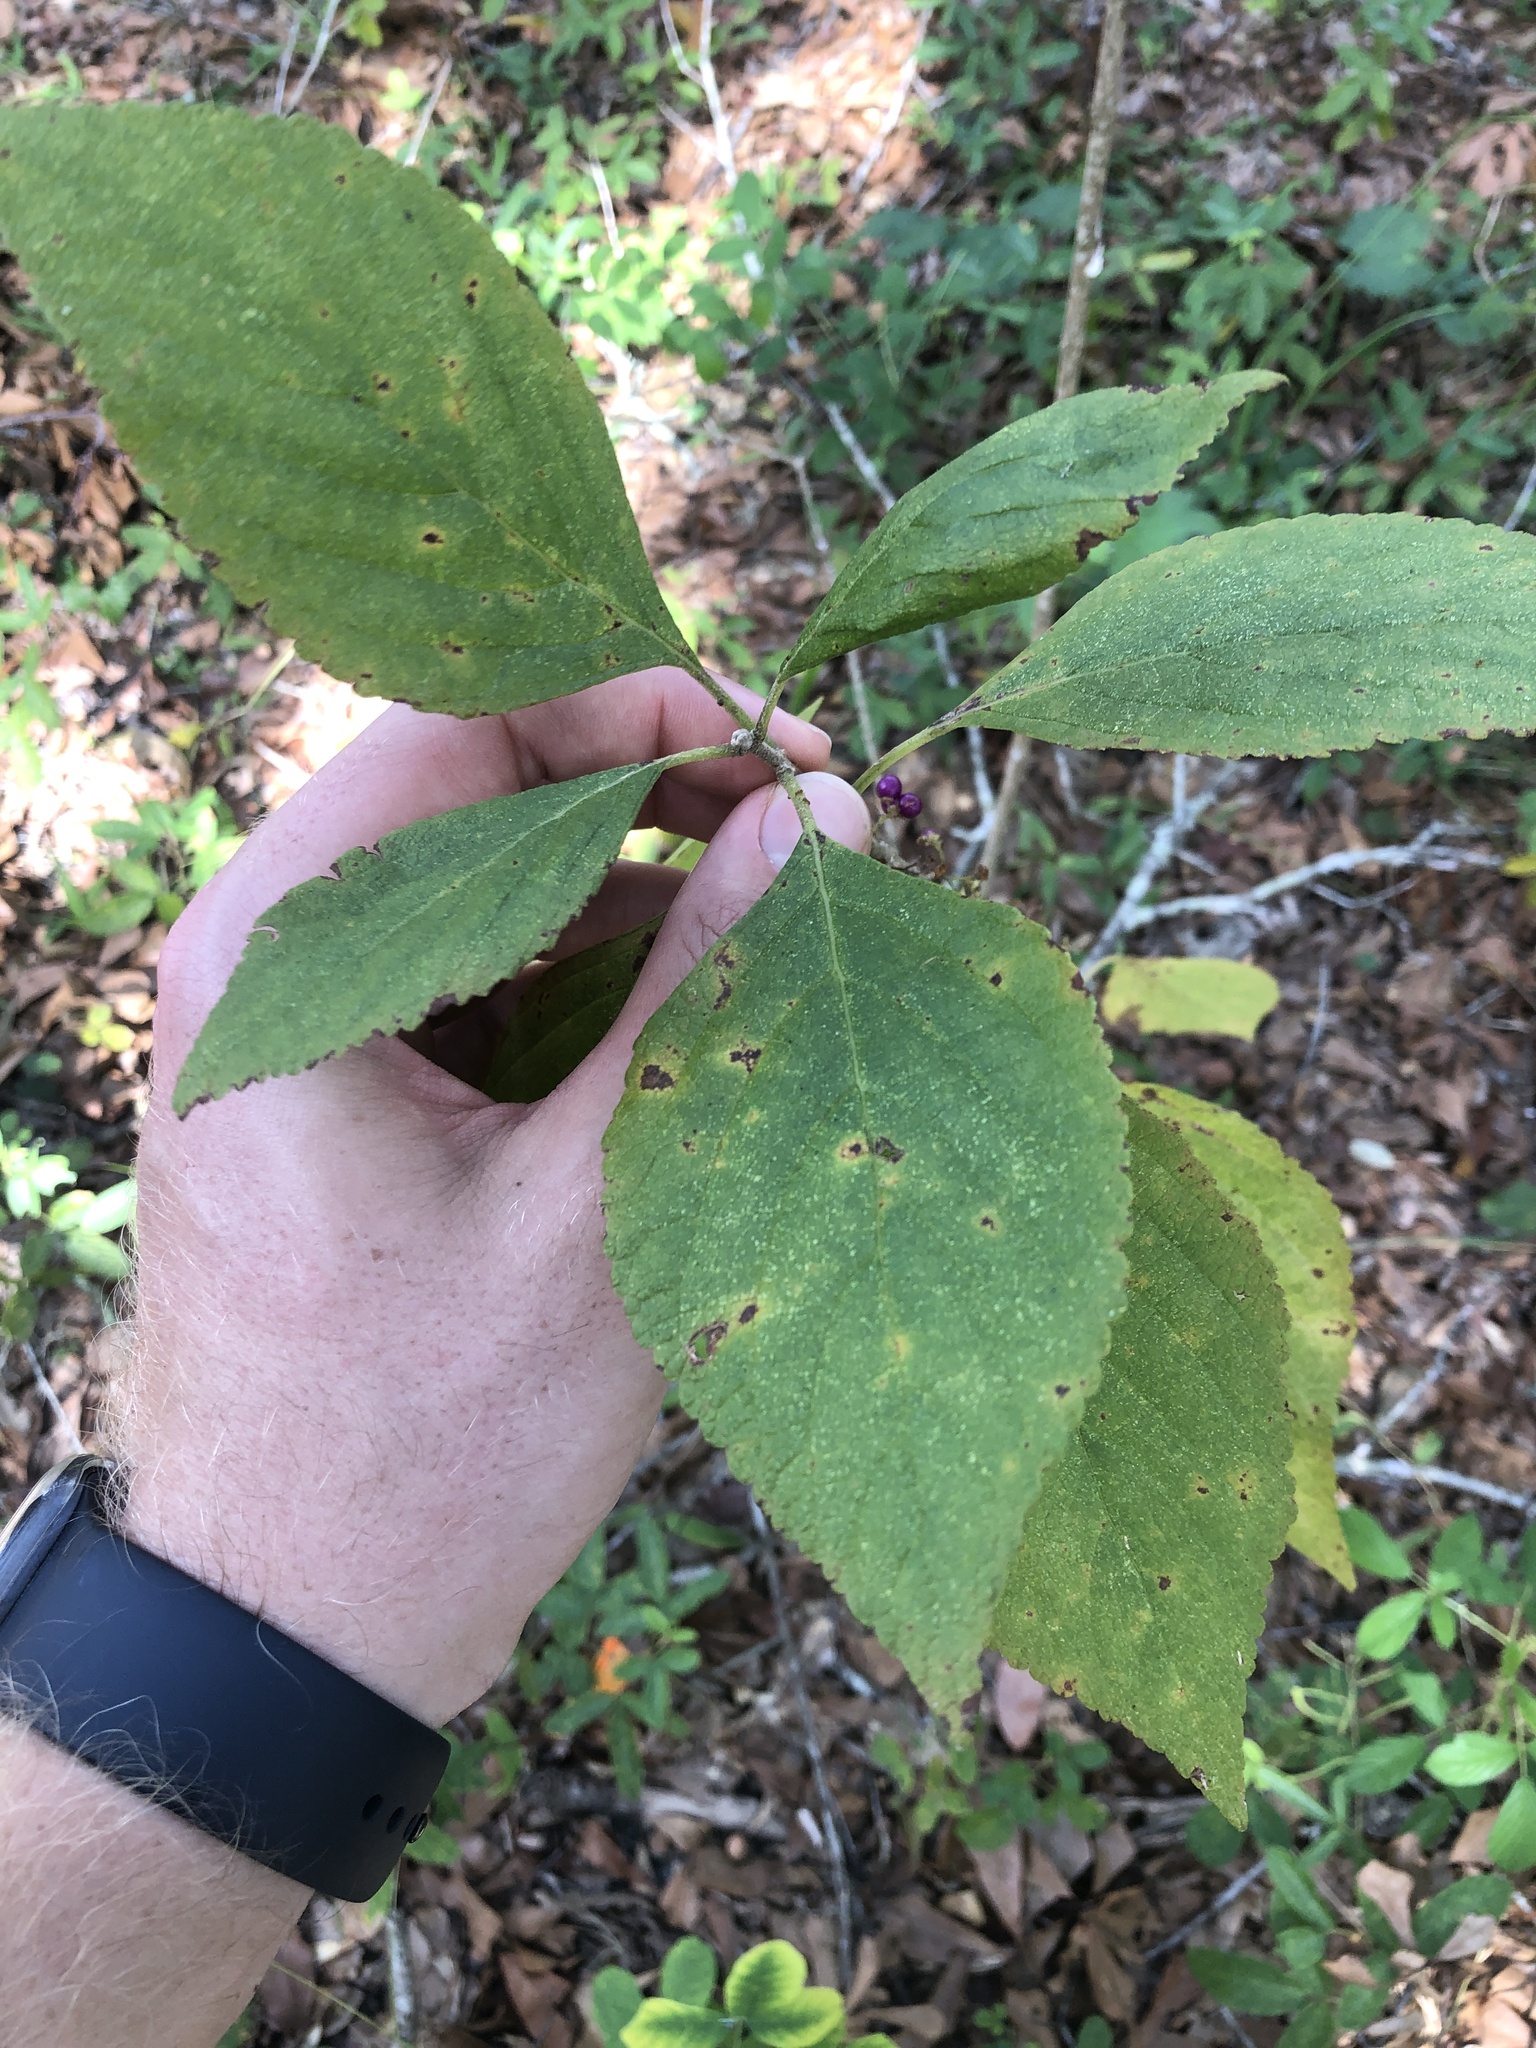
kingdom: Plantae
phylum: Tracheophyta
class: Magnoliopsida
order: Lamiales
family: Lamiaceae
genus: Callicarpa
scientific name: Callicarpa americana
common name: American beautyberry
